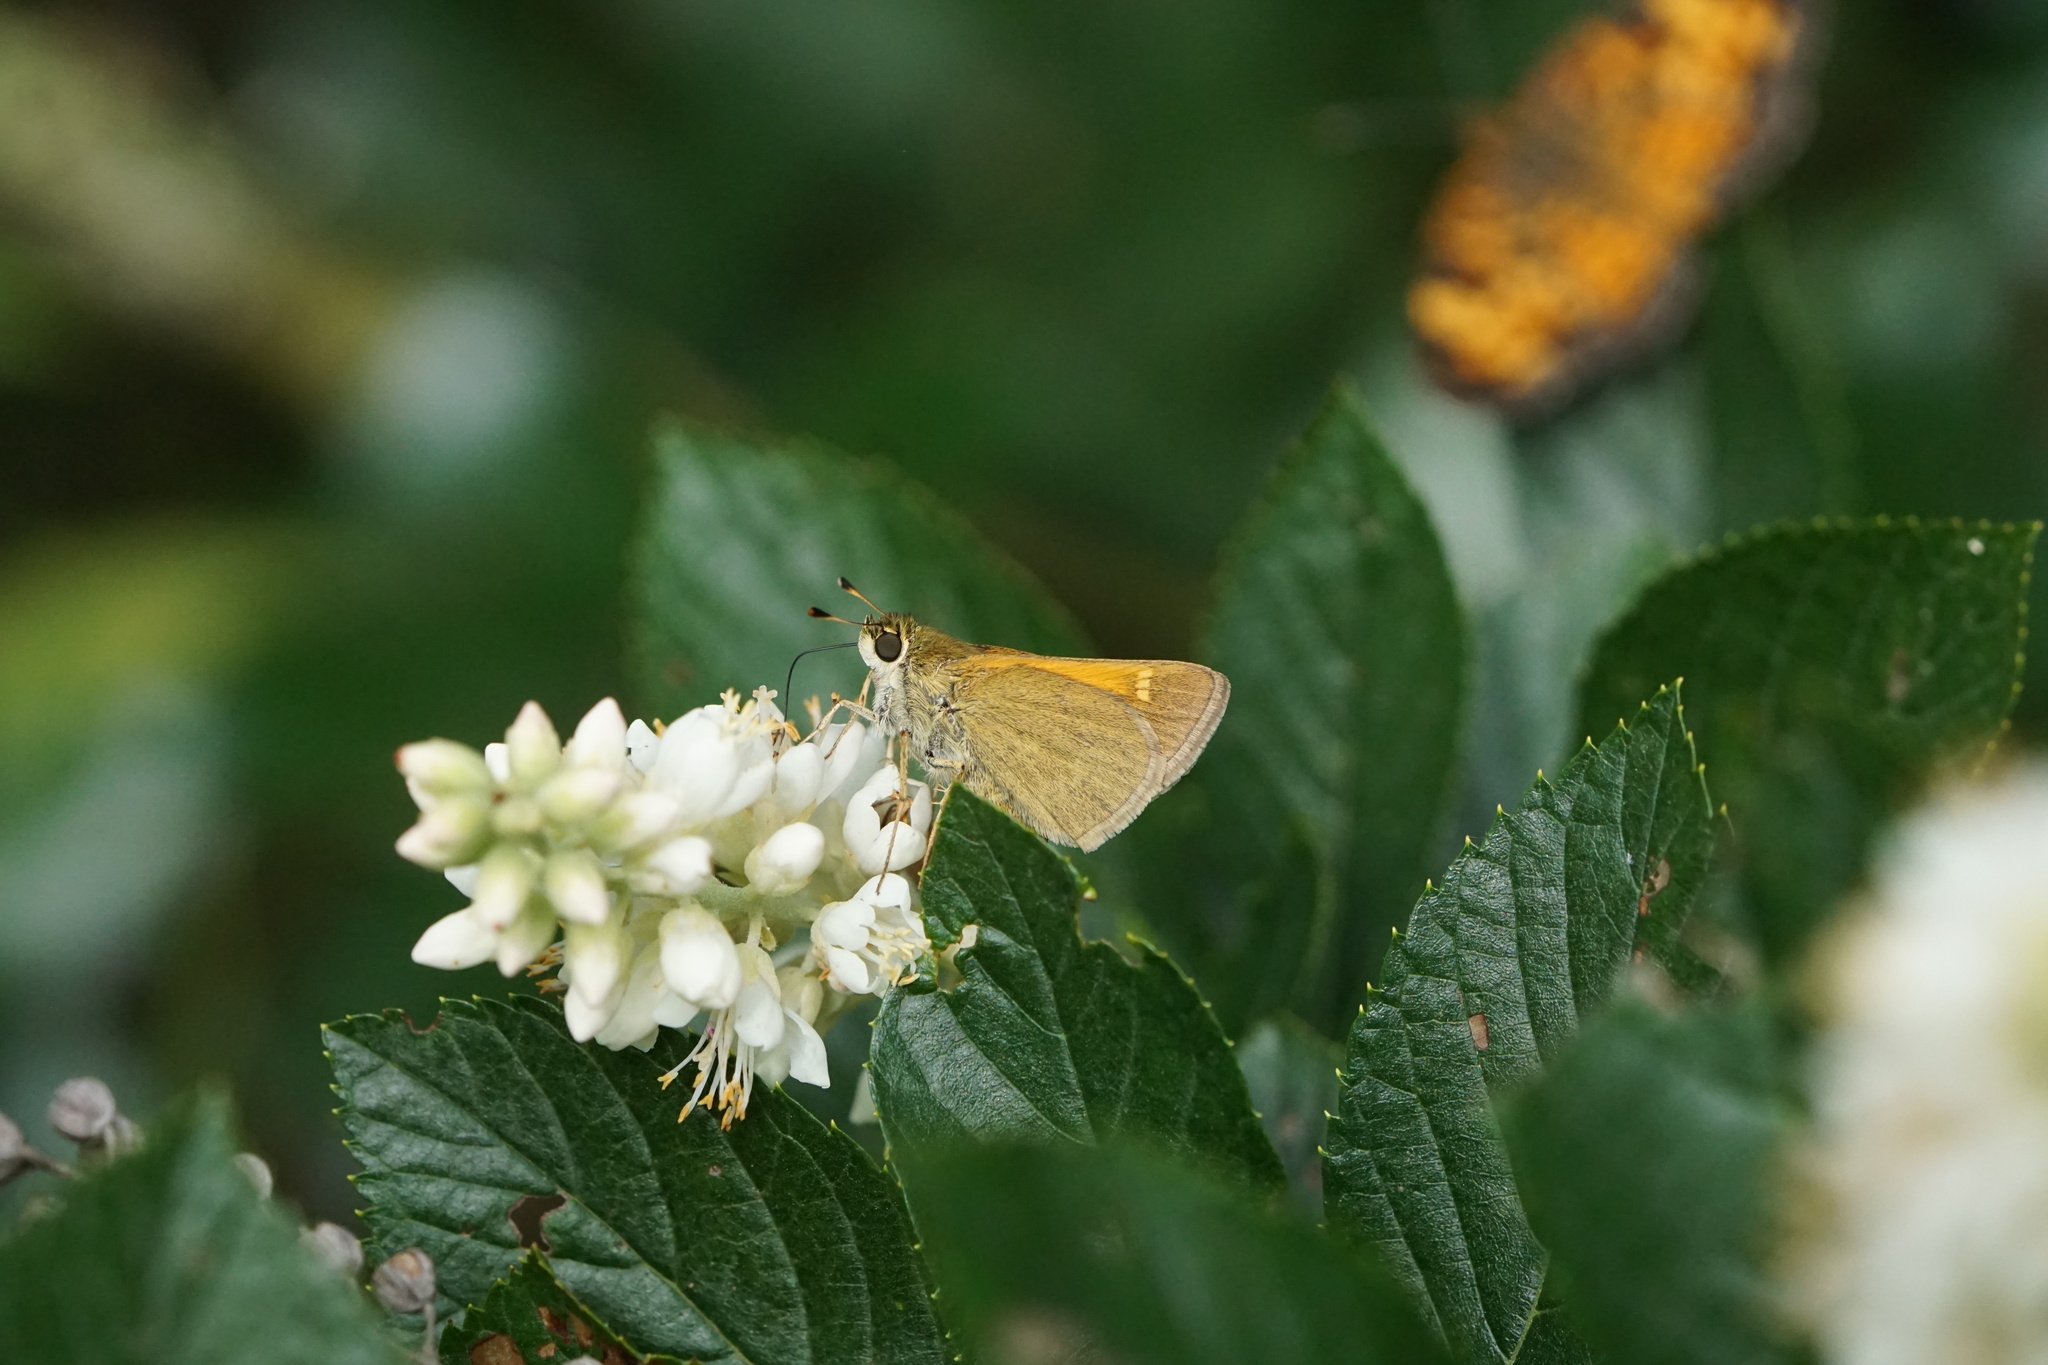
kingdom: Animalia
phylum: Arthropoda
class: Insecta
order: Lepidoptera
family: Hesperiidae
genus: Polites
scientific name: Polites themistocles
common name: Tawny-edged skipper
